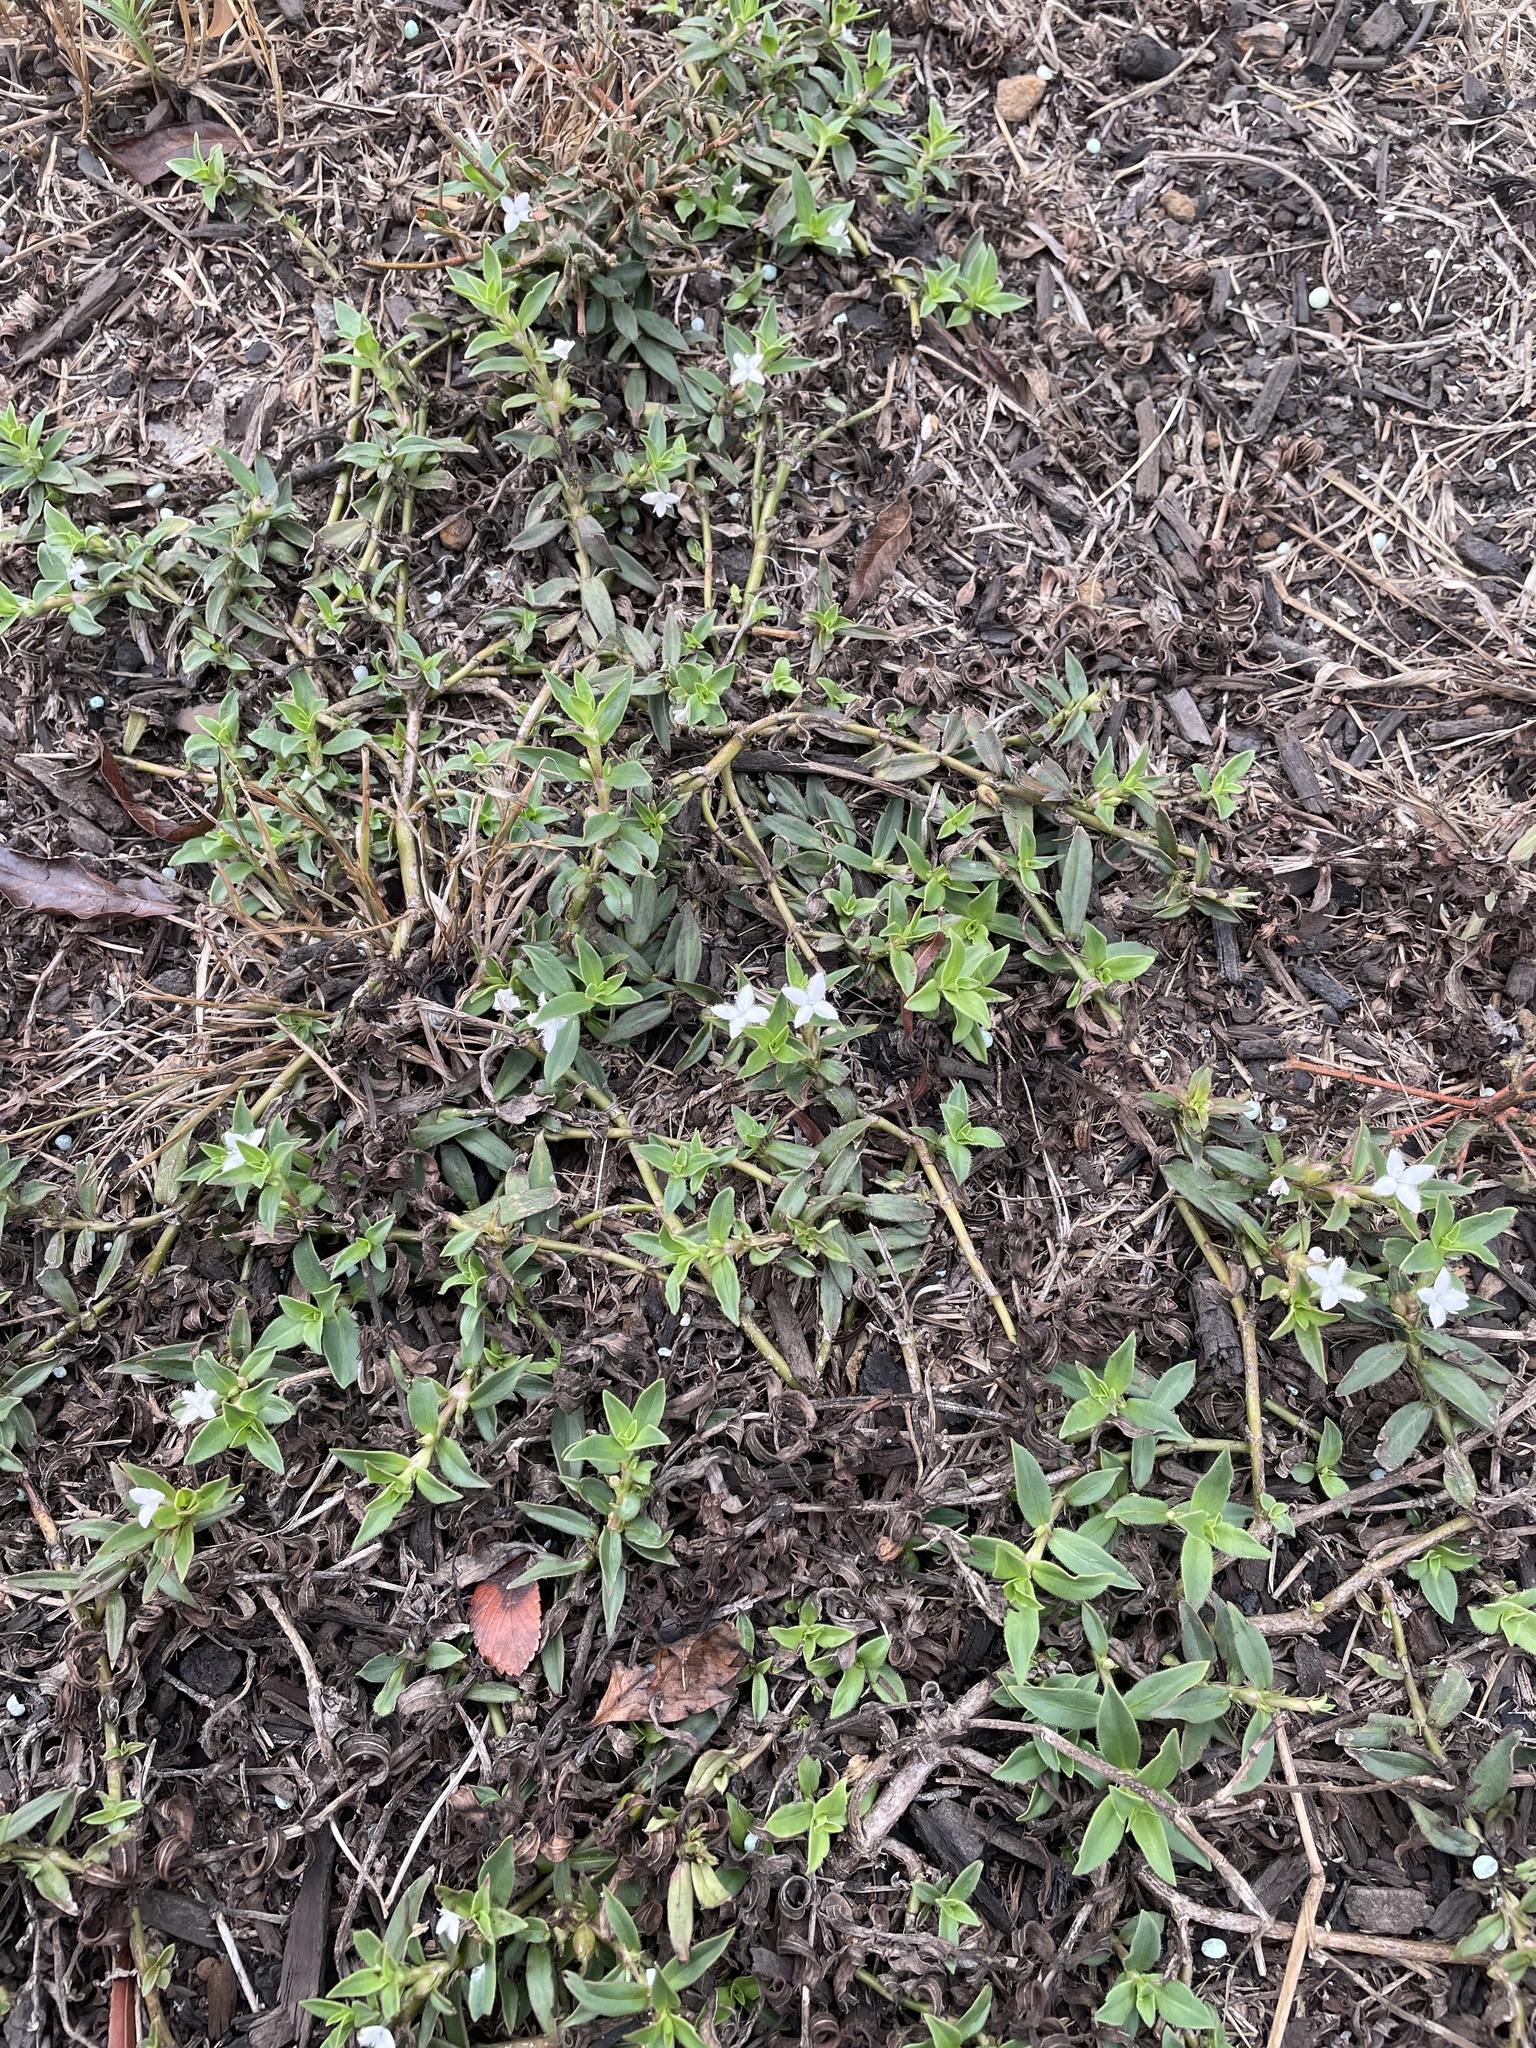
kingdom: Plantae
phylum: Tracheophyta
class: Magnoliopsida
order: Gentianales
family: Rubiaceae
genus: Diodia
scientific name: Diodia virginiana
